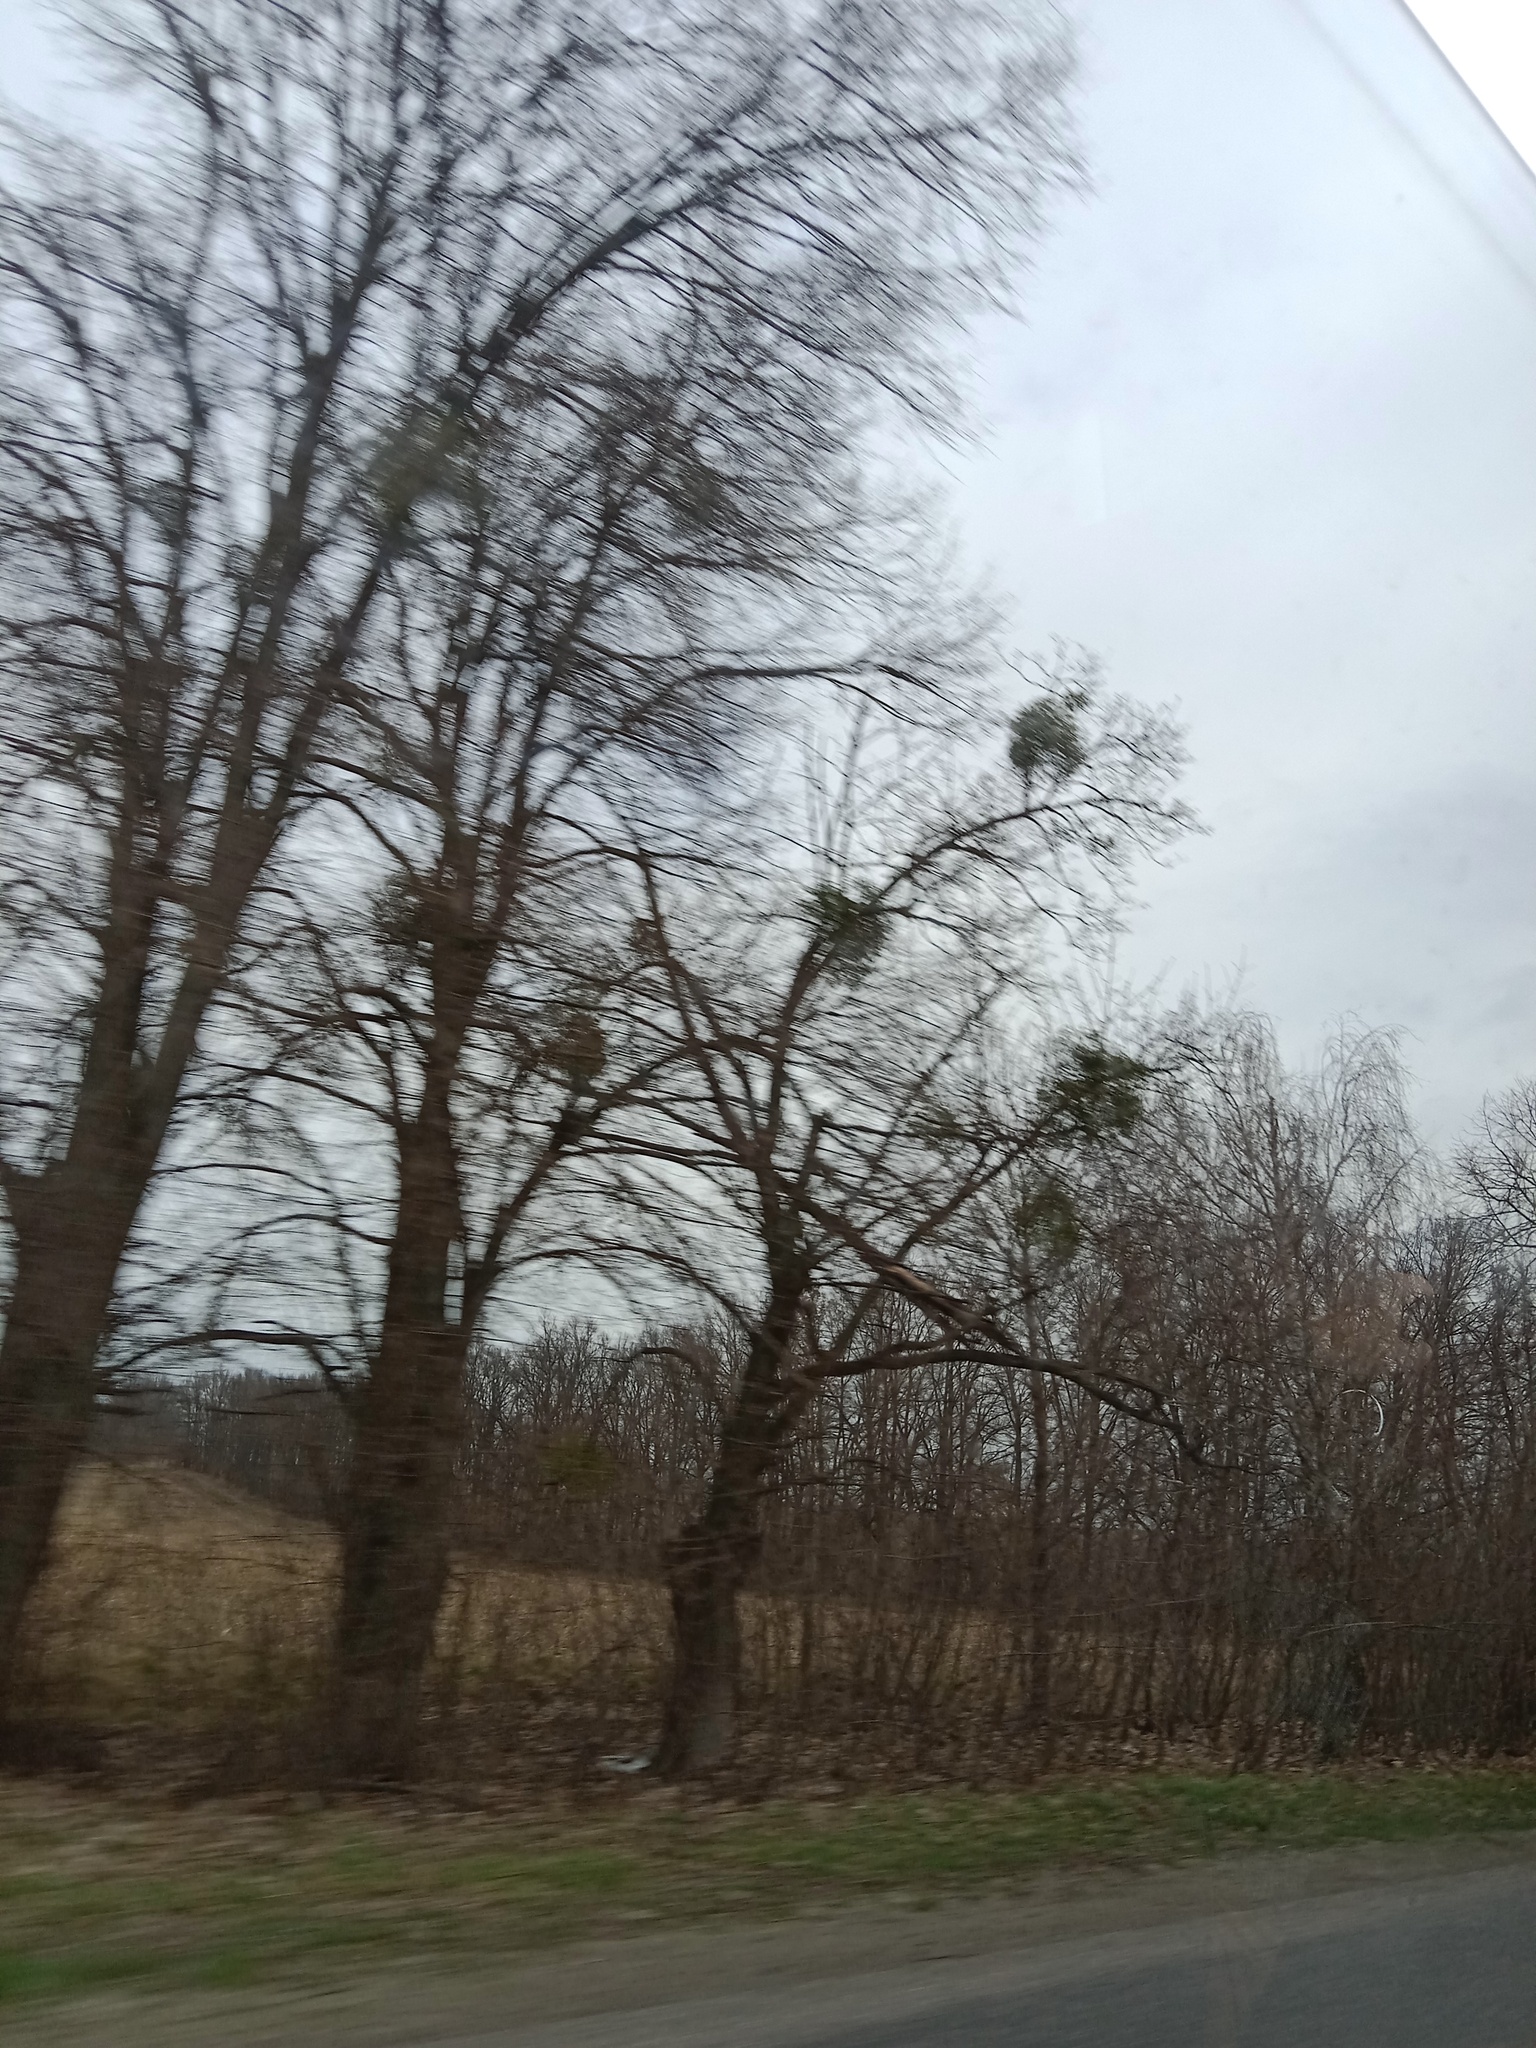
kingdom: Plantae
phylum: Tracheophyta
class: Magnoliopsida
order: Santalales
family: Viscaceae
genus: Viscum
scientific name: Viscum album
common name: Mistletoe
